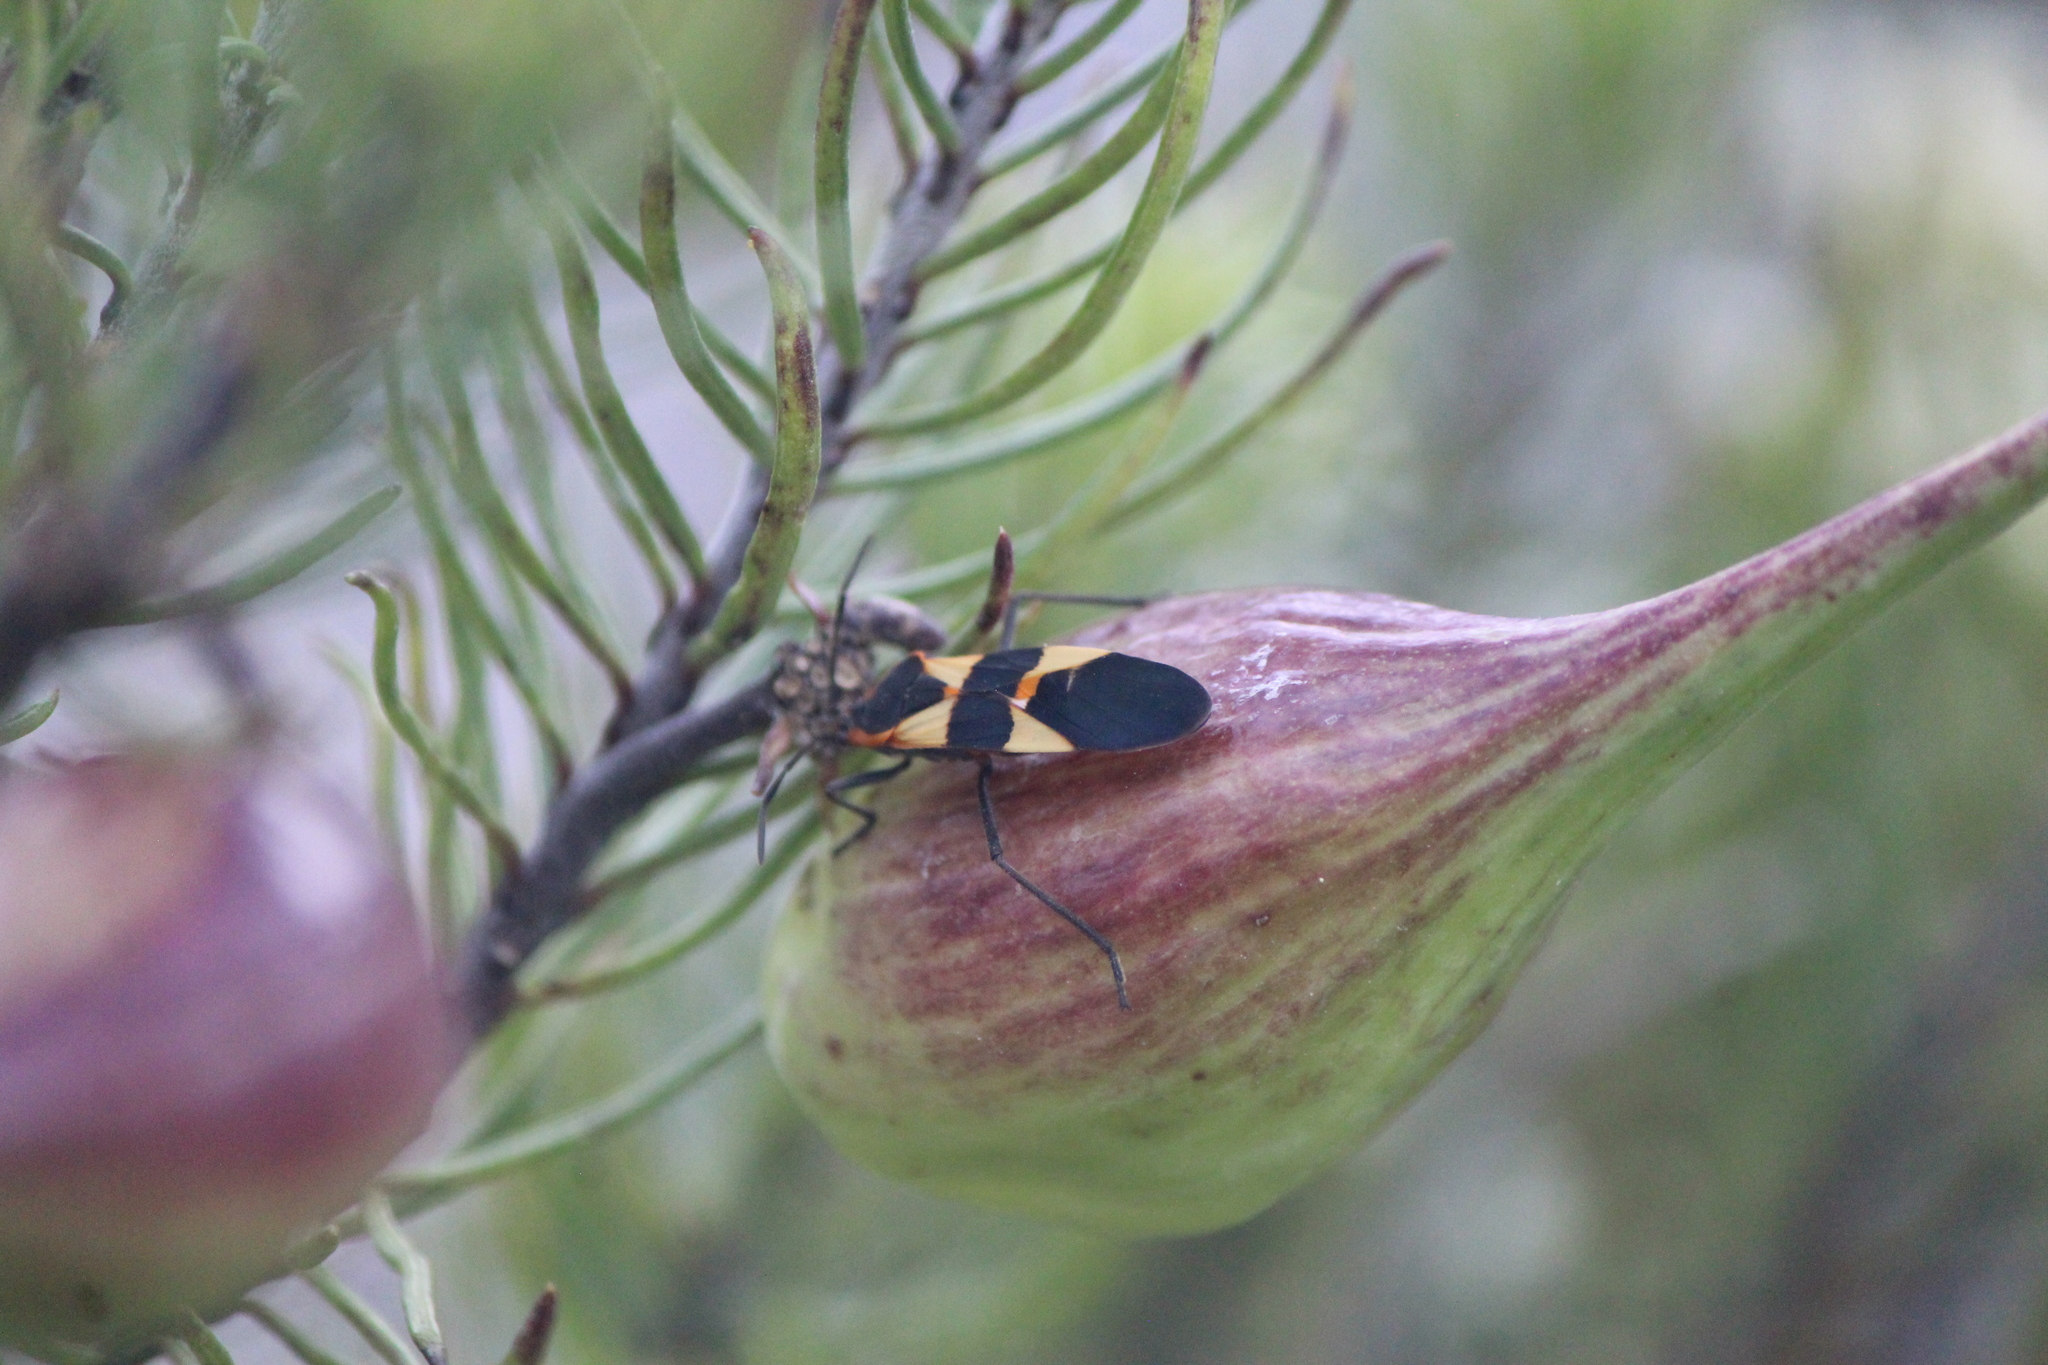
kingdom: Animalia
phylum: Arthropoda
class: Insecta
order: Hemiptera
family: Lygaeidae
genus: Oncopeltus
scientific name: Oncopeltus fasciatus
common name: Large milkweed bug
